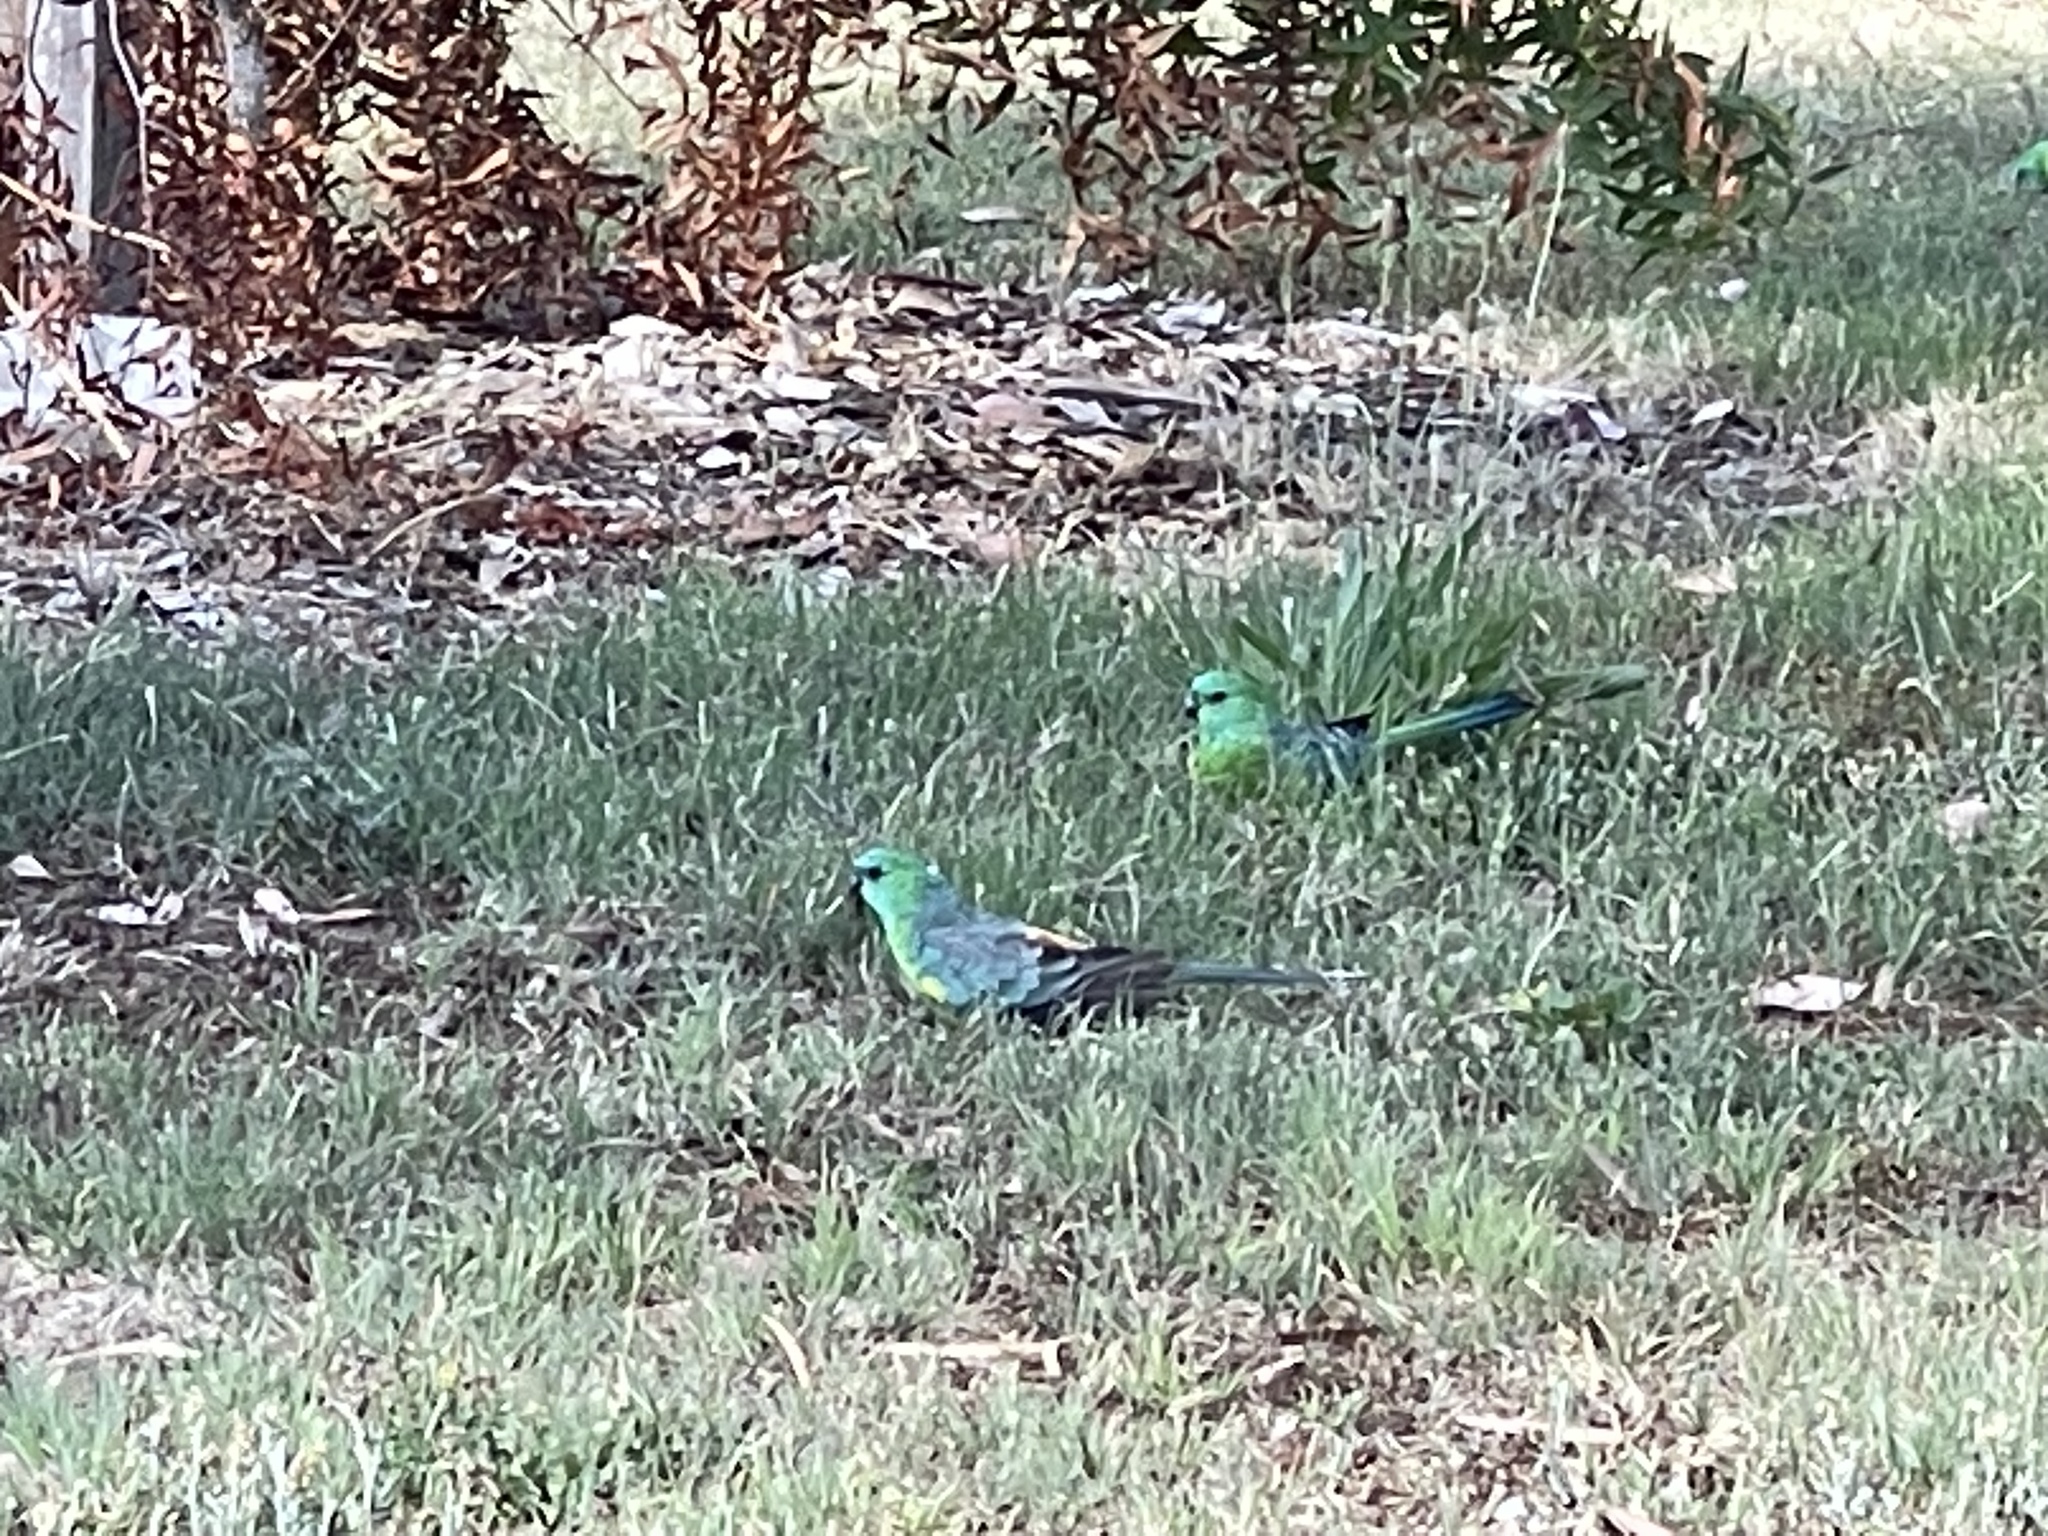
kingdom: Animalia
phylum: Chordata
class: Aves
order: Psittaciformes
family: Psittacidae
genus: Psephotus
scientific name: Psephotus haematonotus
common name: Red-rumped parrot
